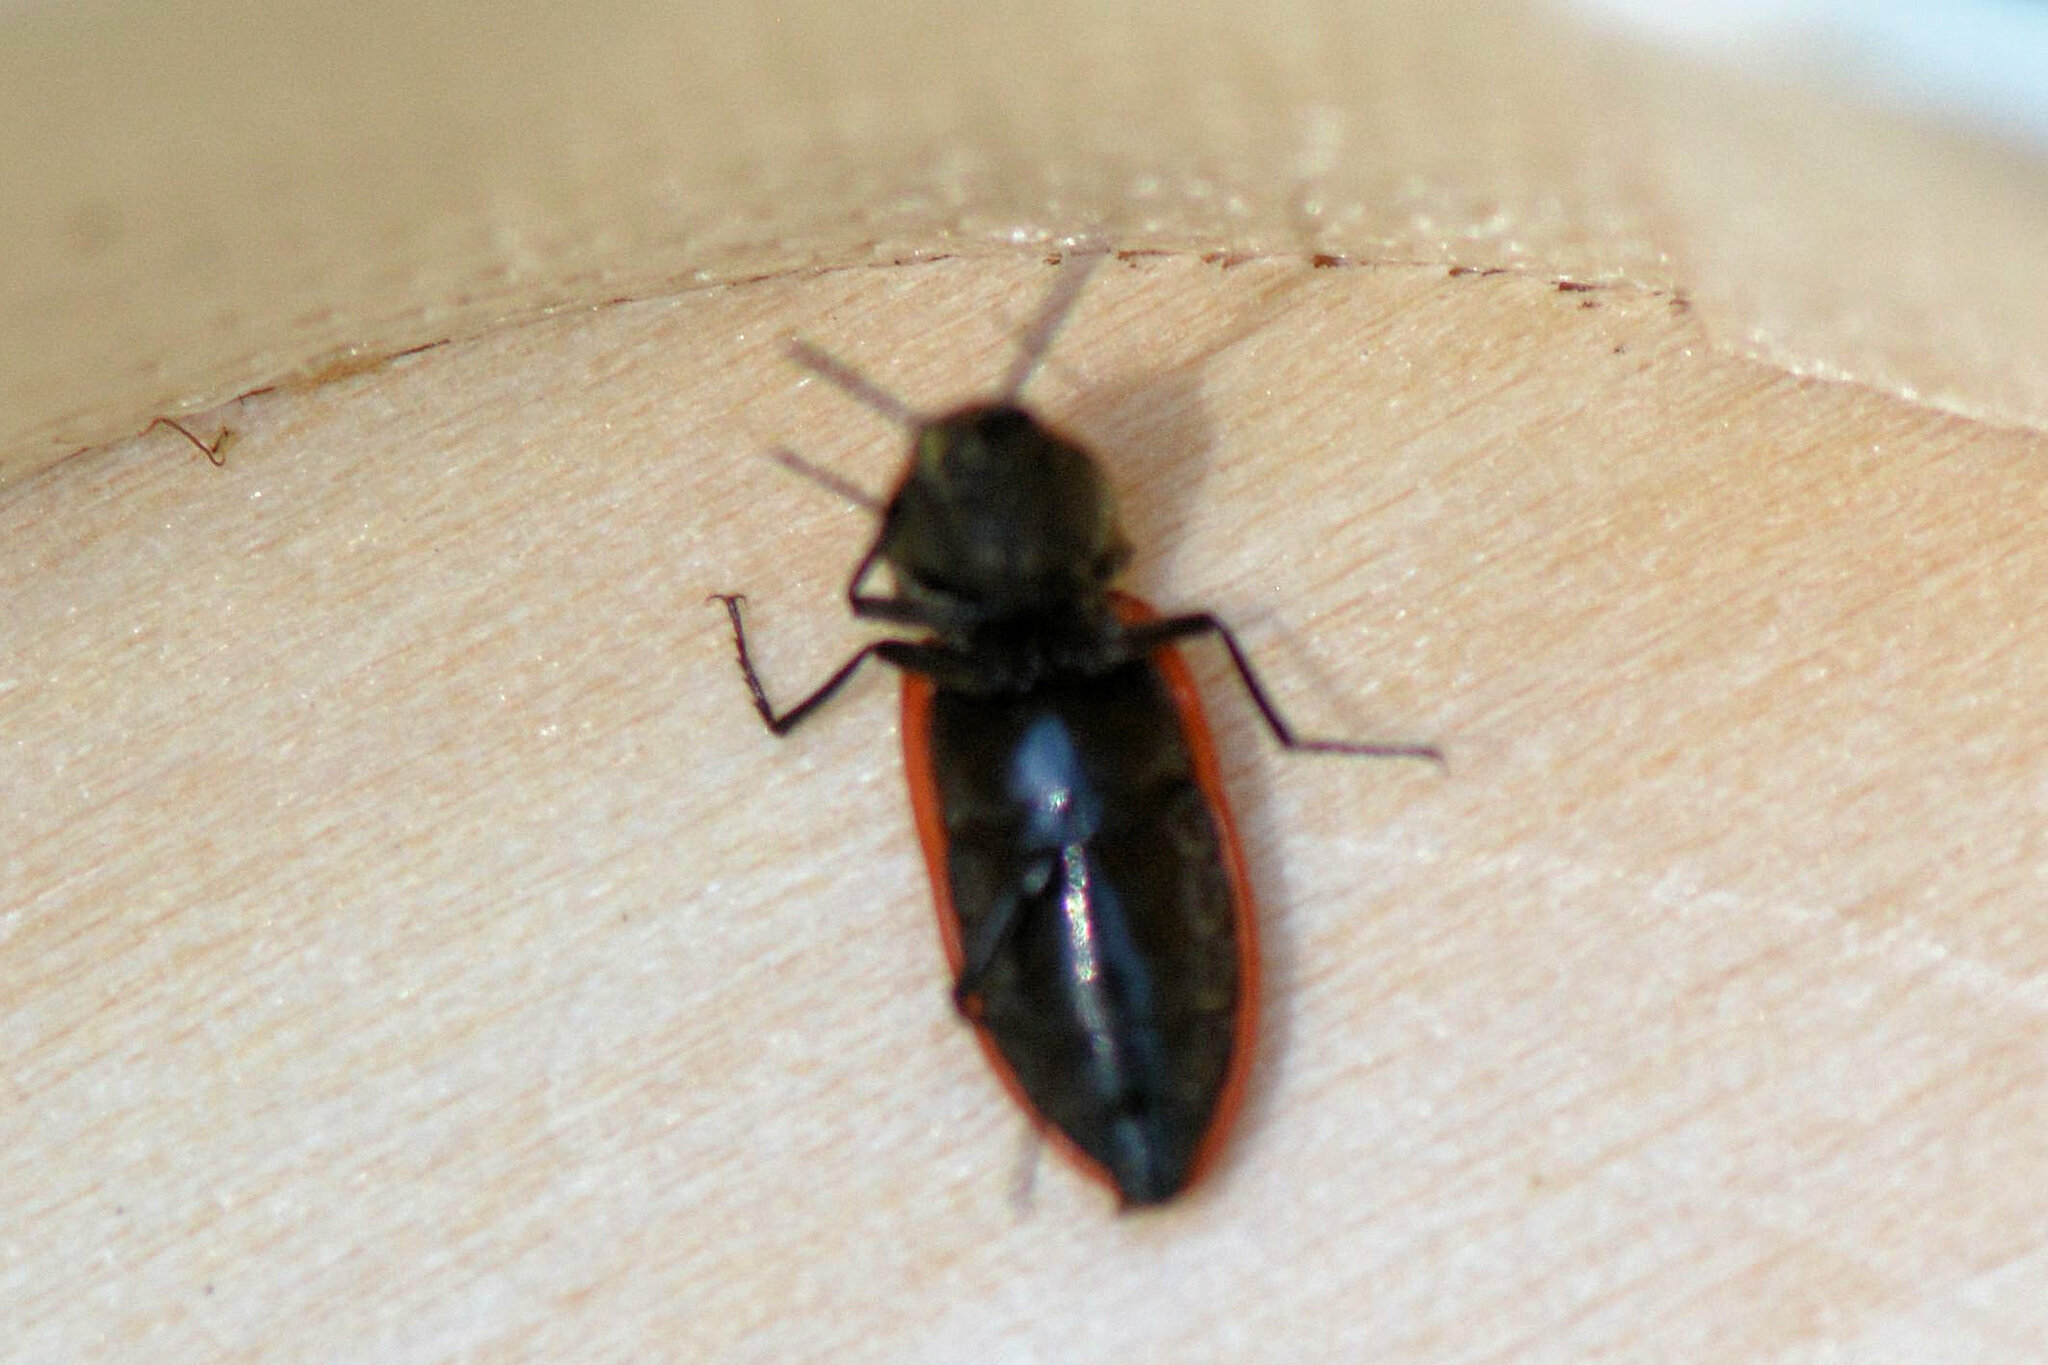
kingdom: Animalia
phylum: Arthropoda
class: Insecta
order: Coleoptera
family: Elateridae
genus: Anostirus
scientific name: Anostirus purpureus
